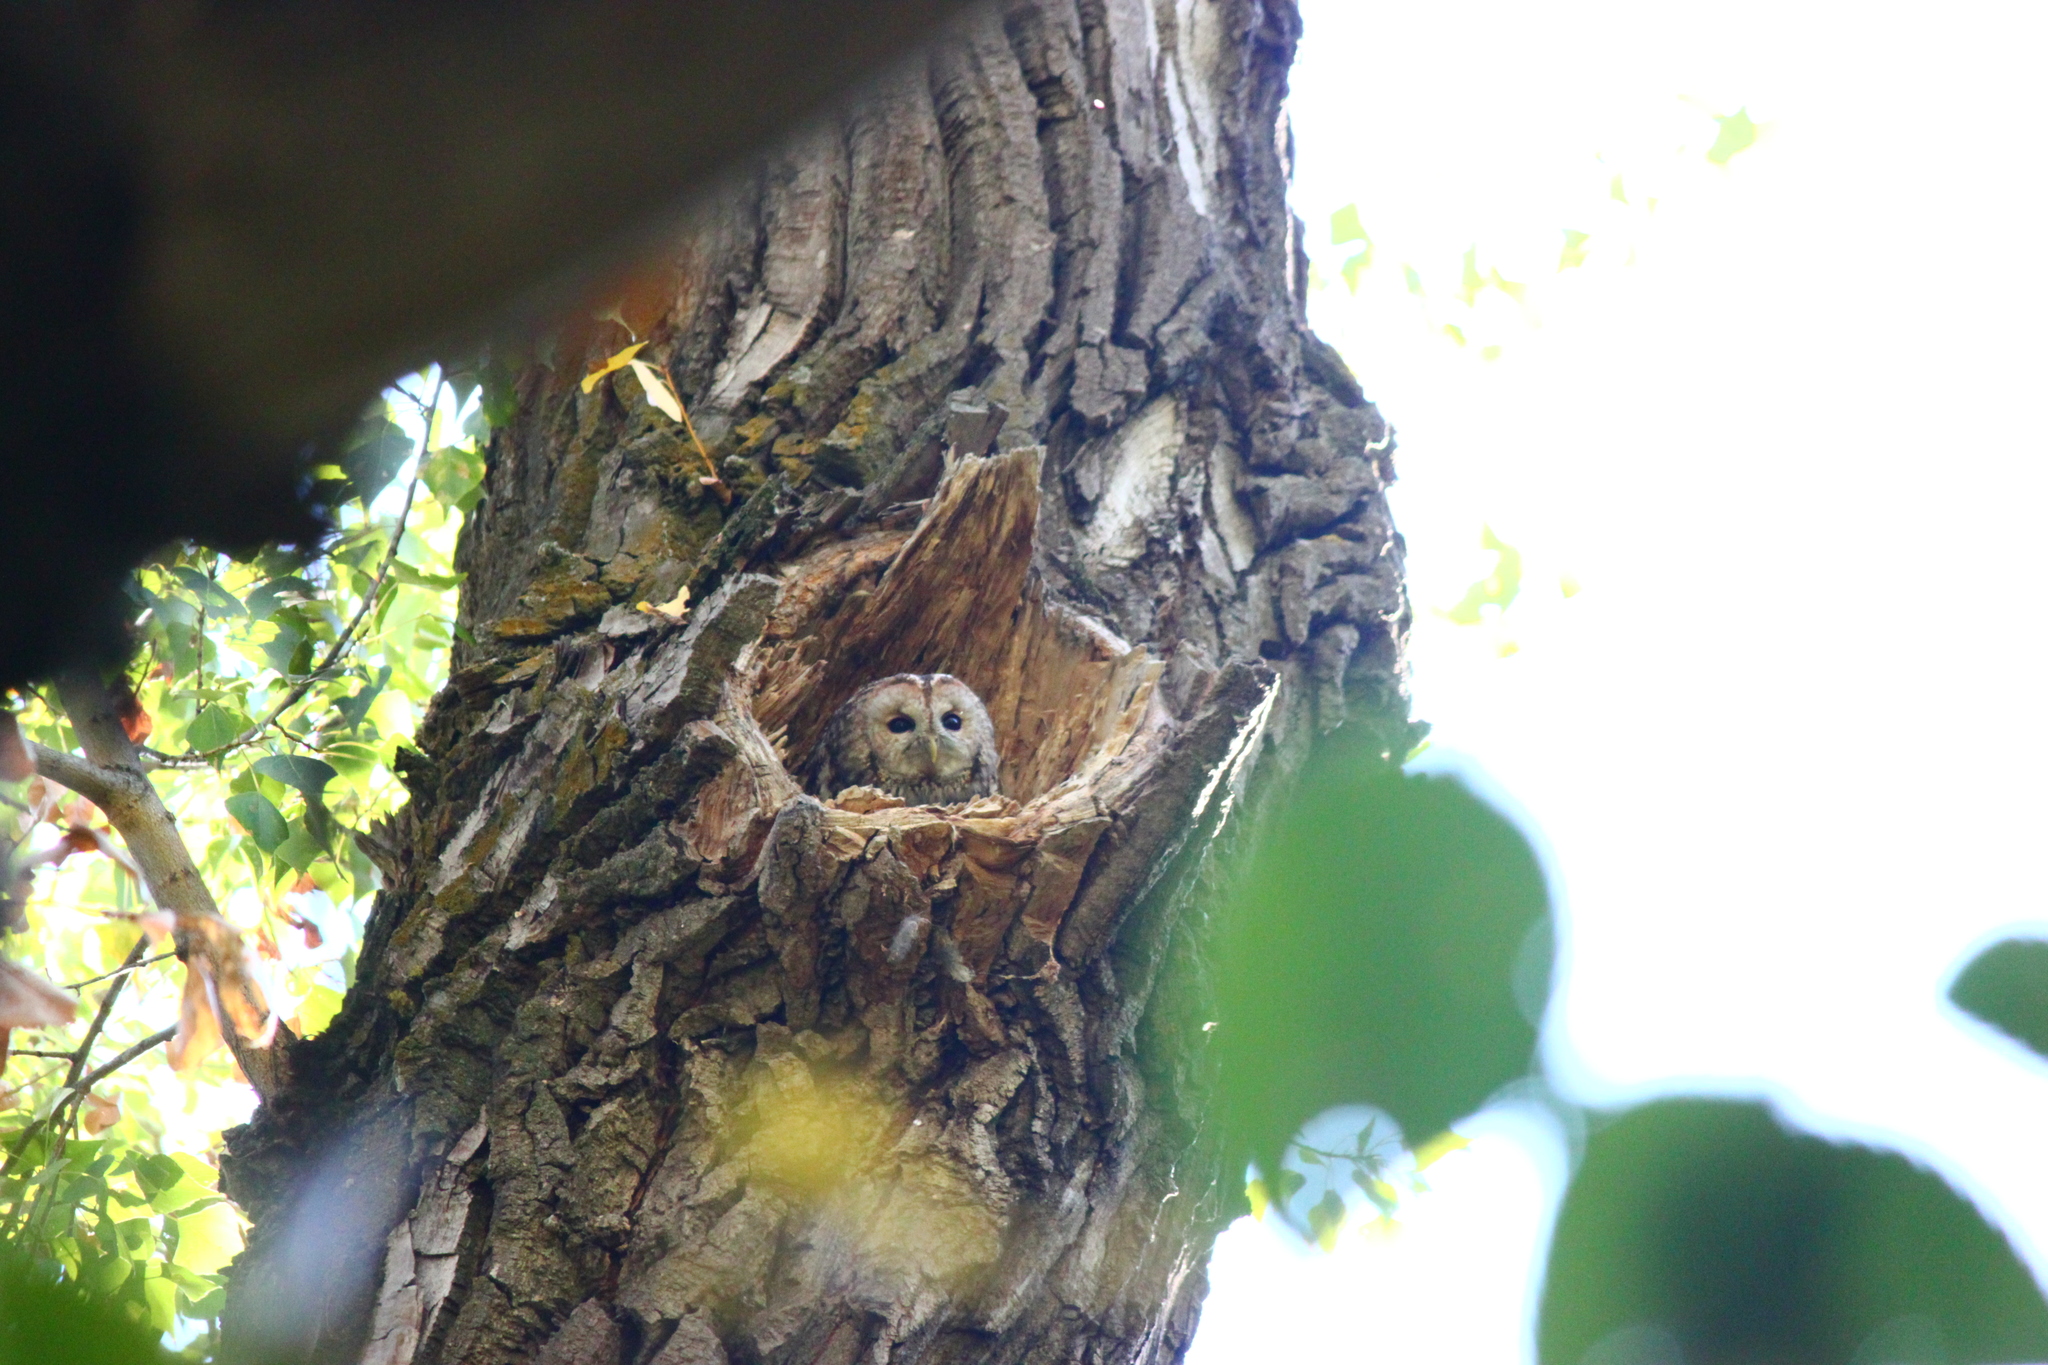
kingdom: Animalia
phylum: Chordata
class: Aves
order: Strigiformes
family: Strigidae
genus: Strix
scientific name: Strix aluco
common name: Tawny owl
